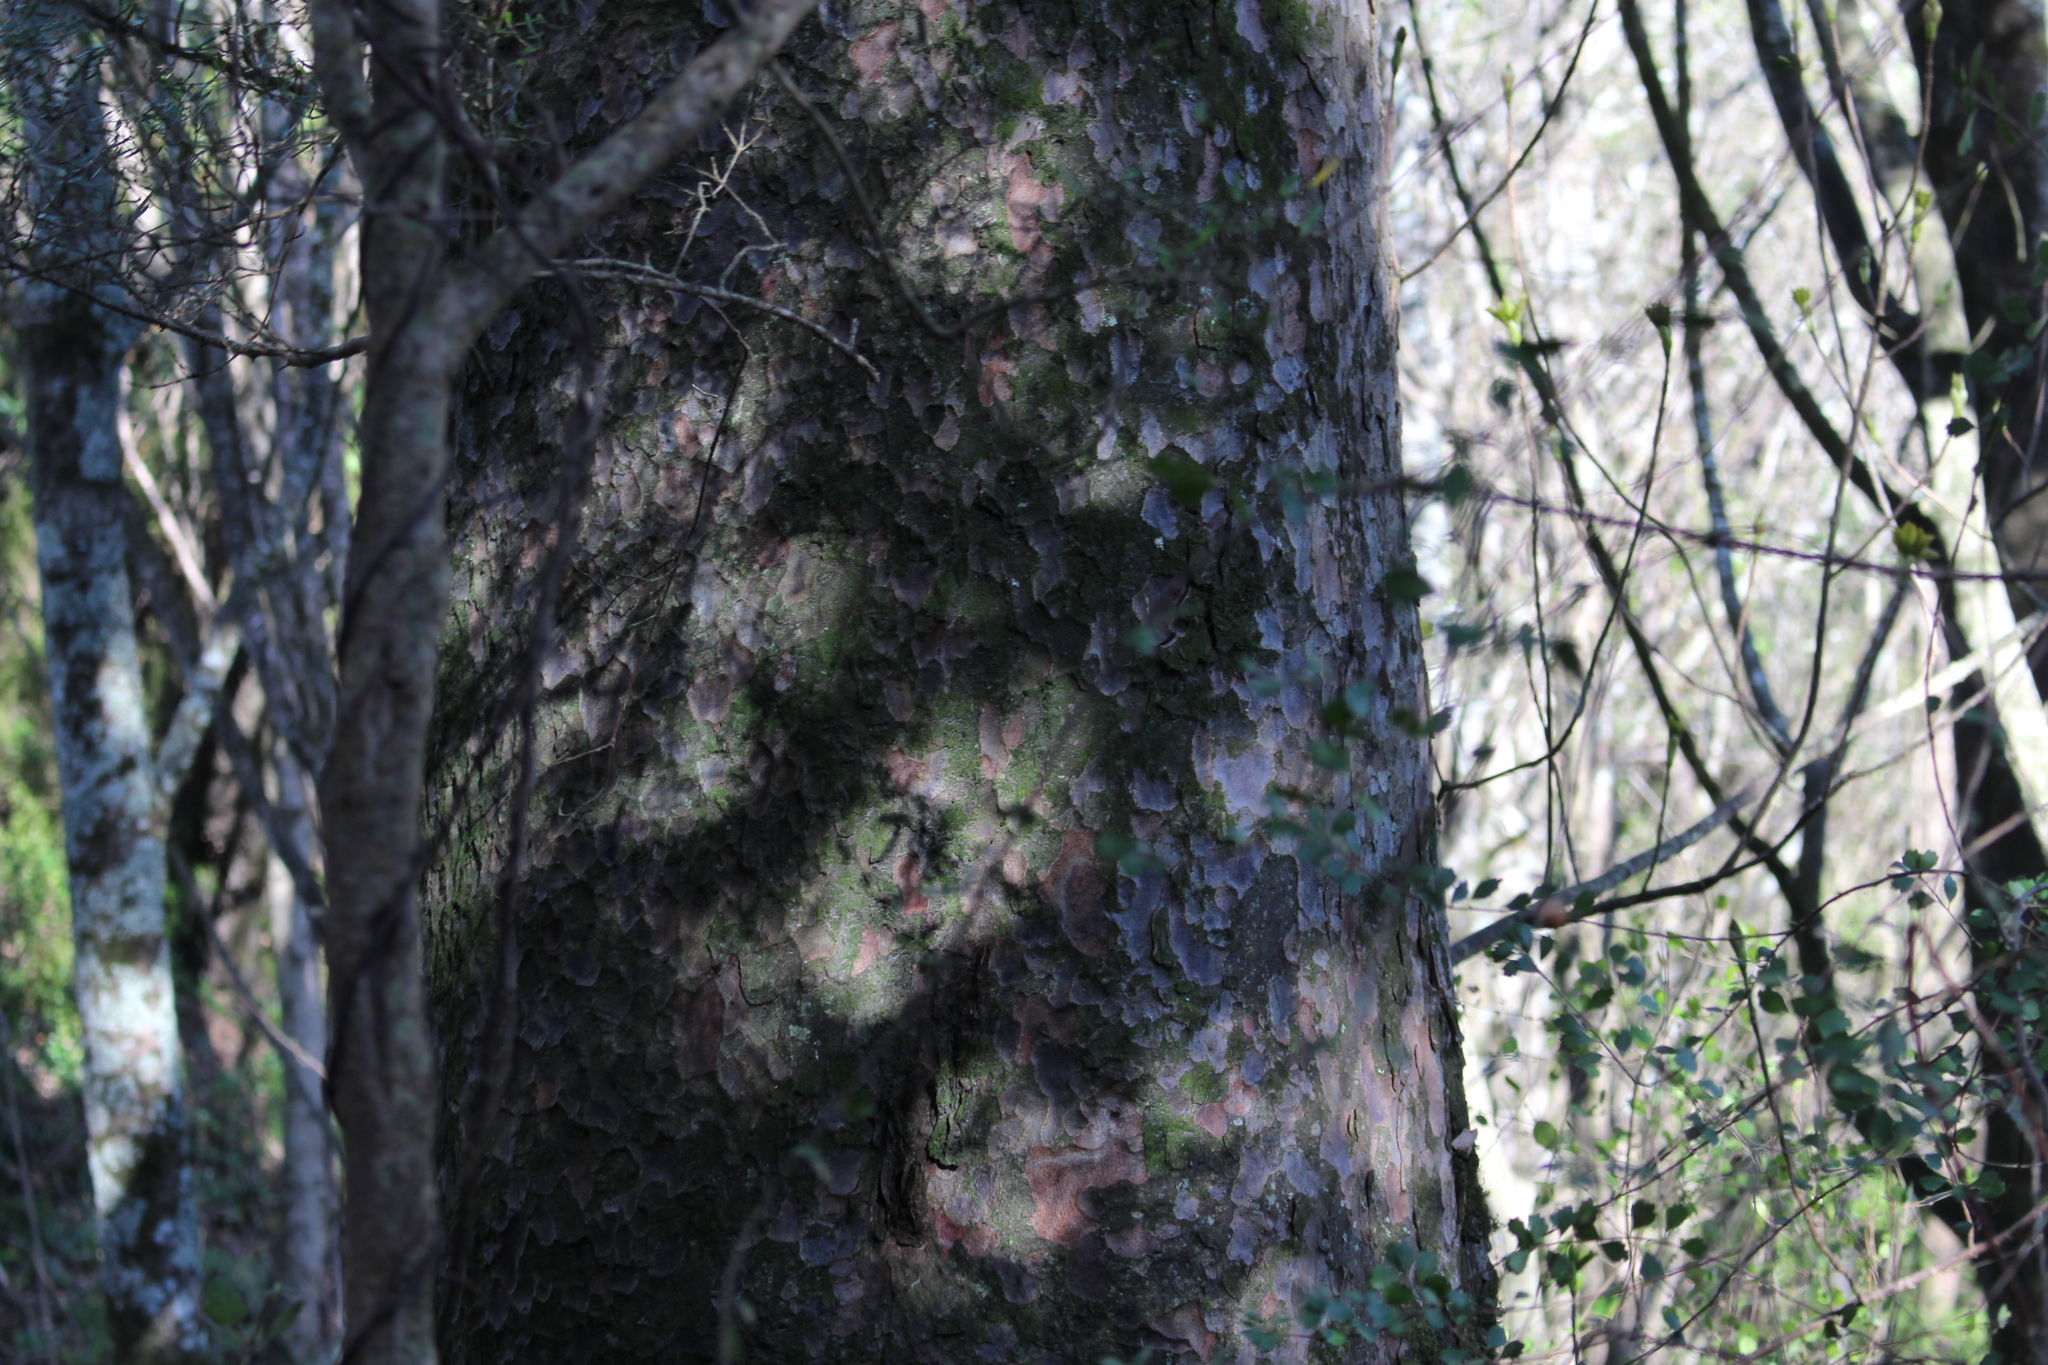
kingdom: Plantae
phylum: Tracheophyta
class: Pinopsida
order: Pinales
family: Podocarpaceae
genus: Prumnopitys
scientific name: Prumnopitys taxifolia
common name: Matai
